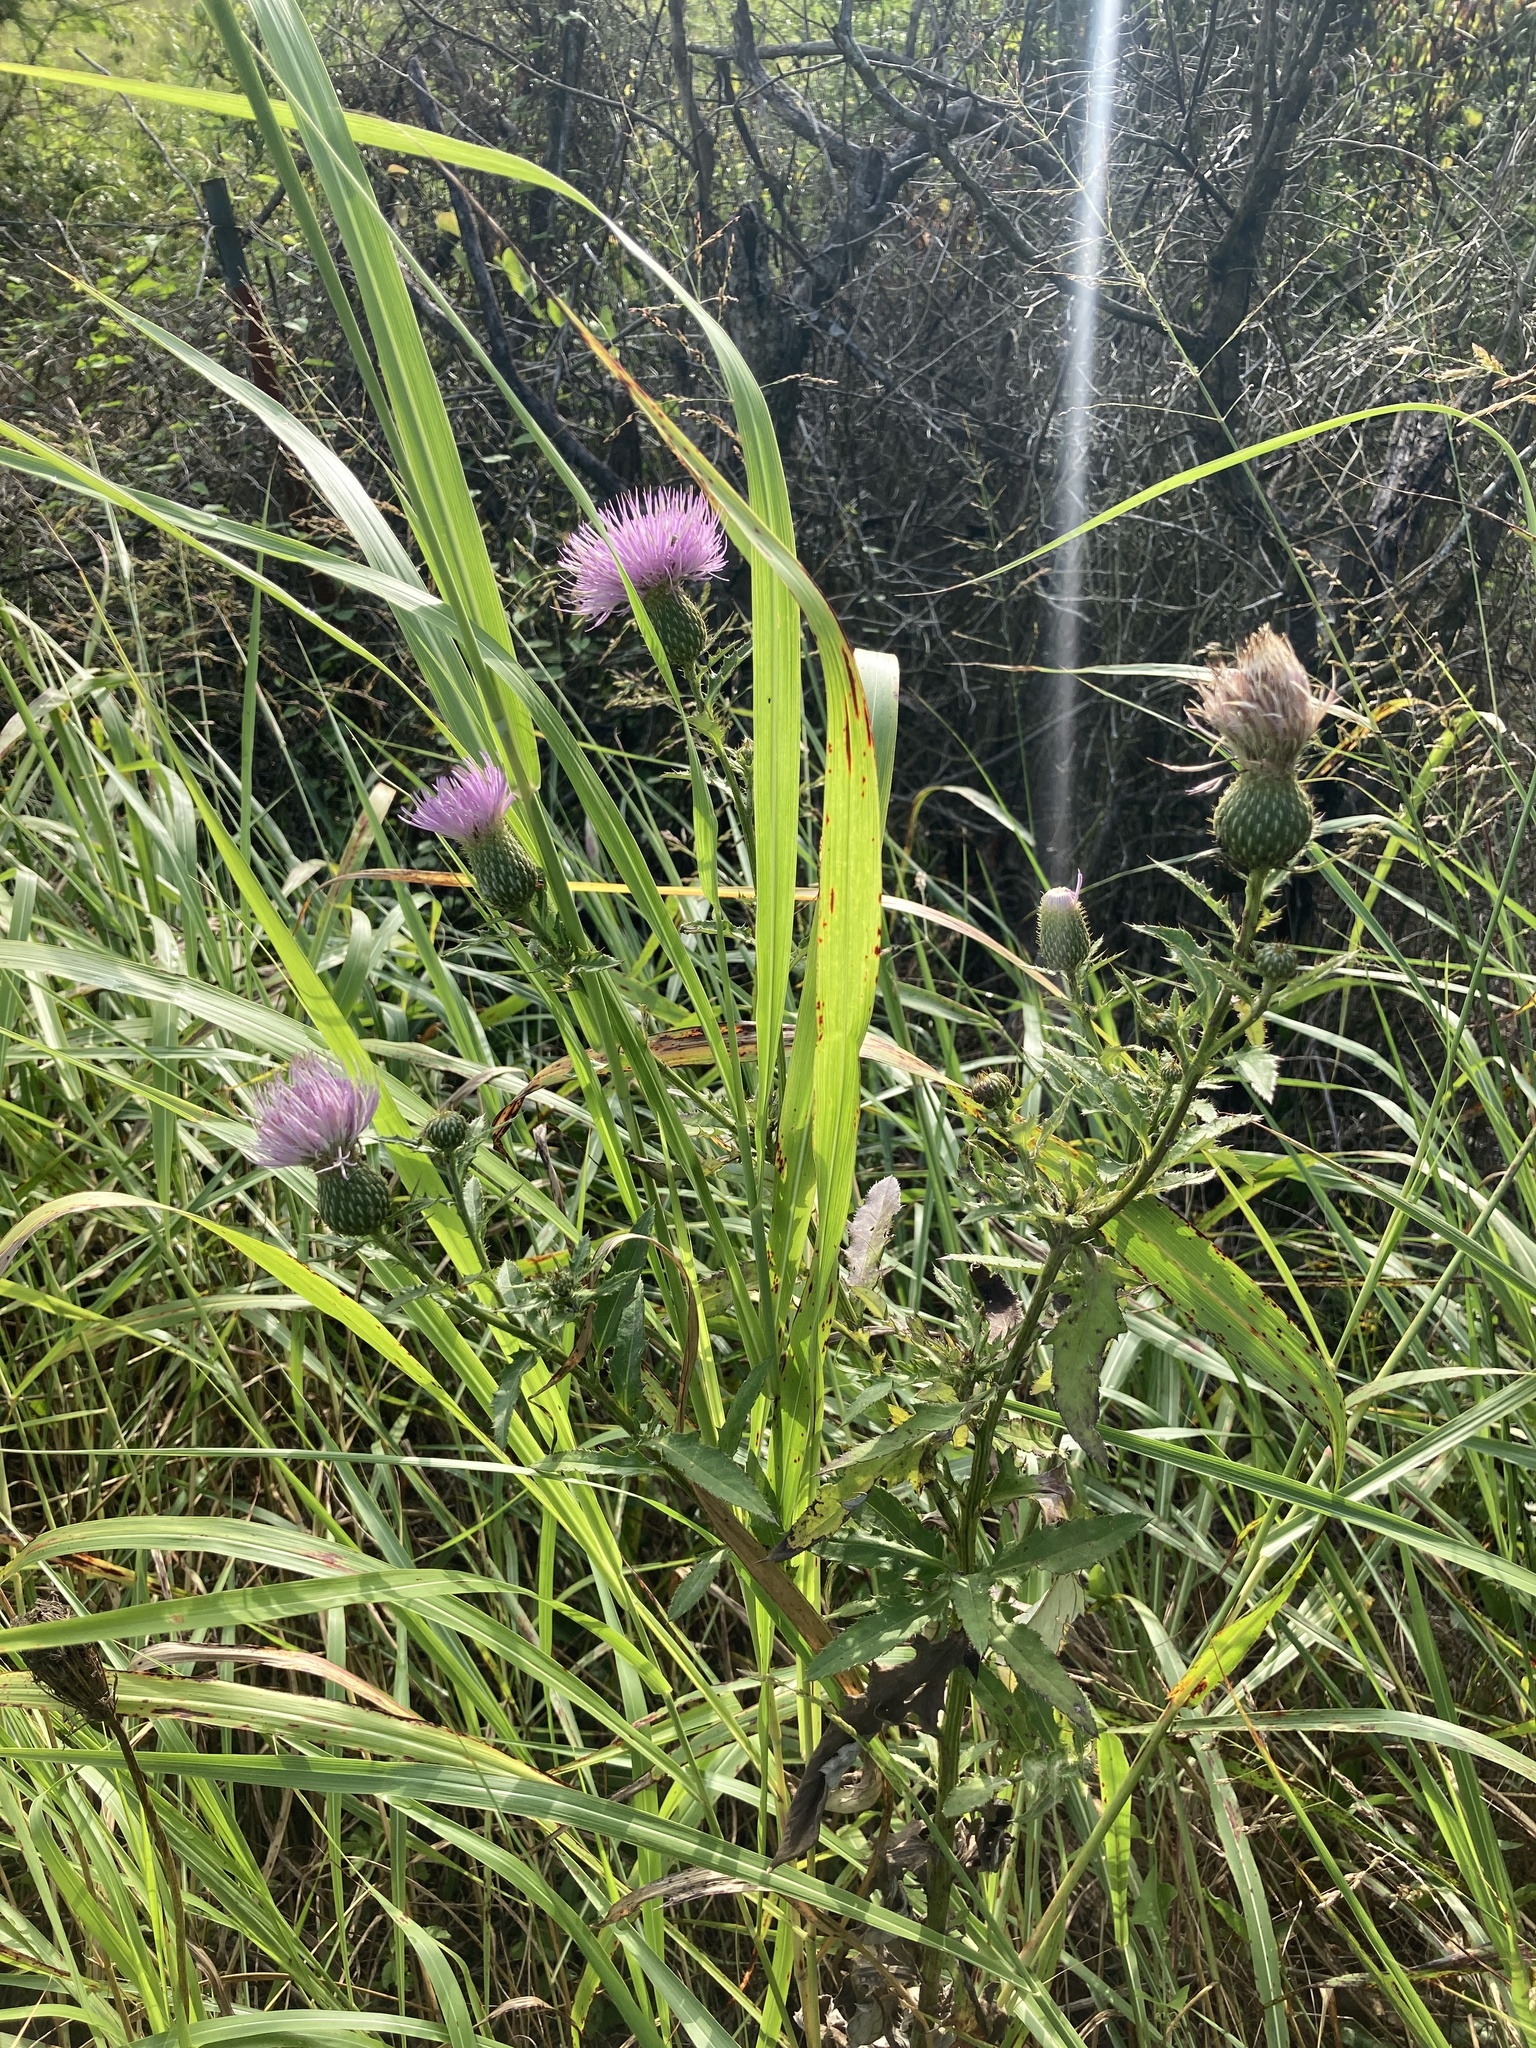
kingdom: Plantae
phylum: Tracheophyta
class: Magnoliopsida
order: Asterales
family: Asteraceae
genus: Cirsium
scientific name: Cirsium altissimum
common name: Roadside thistle
